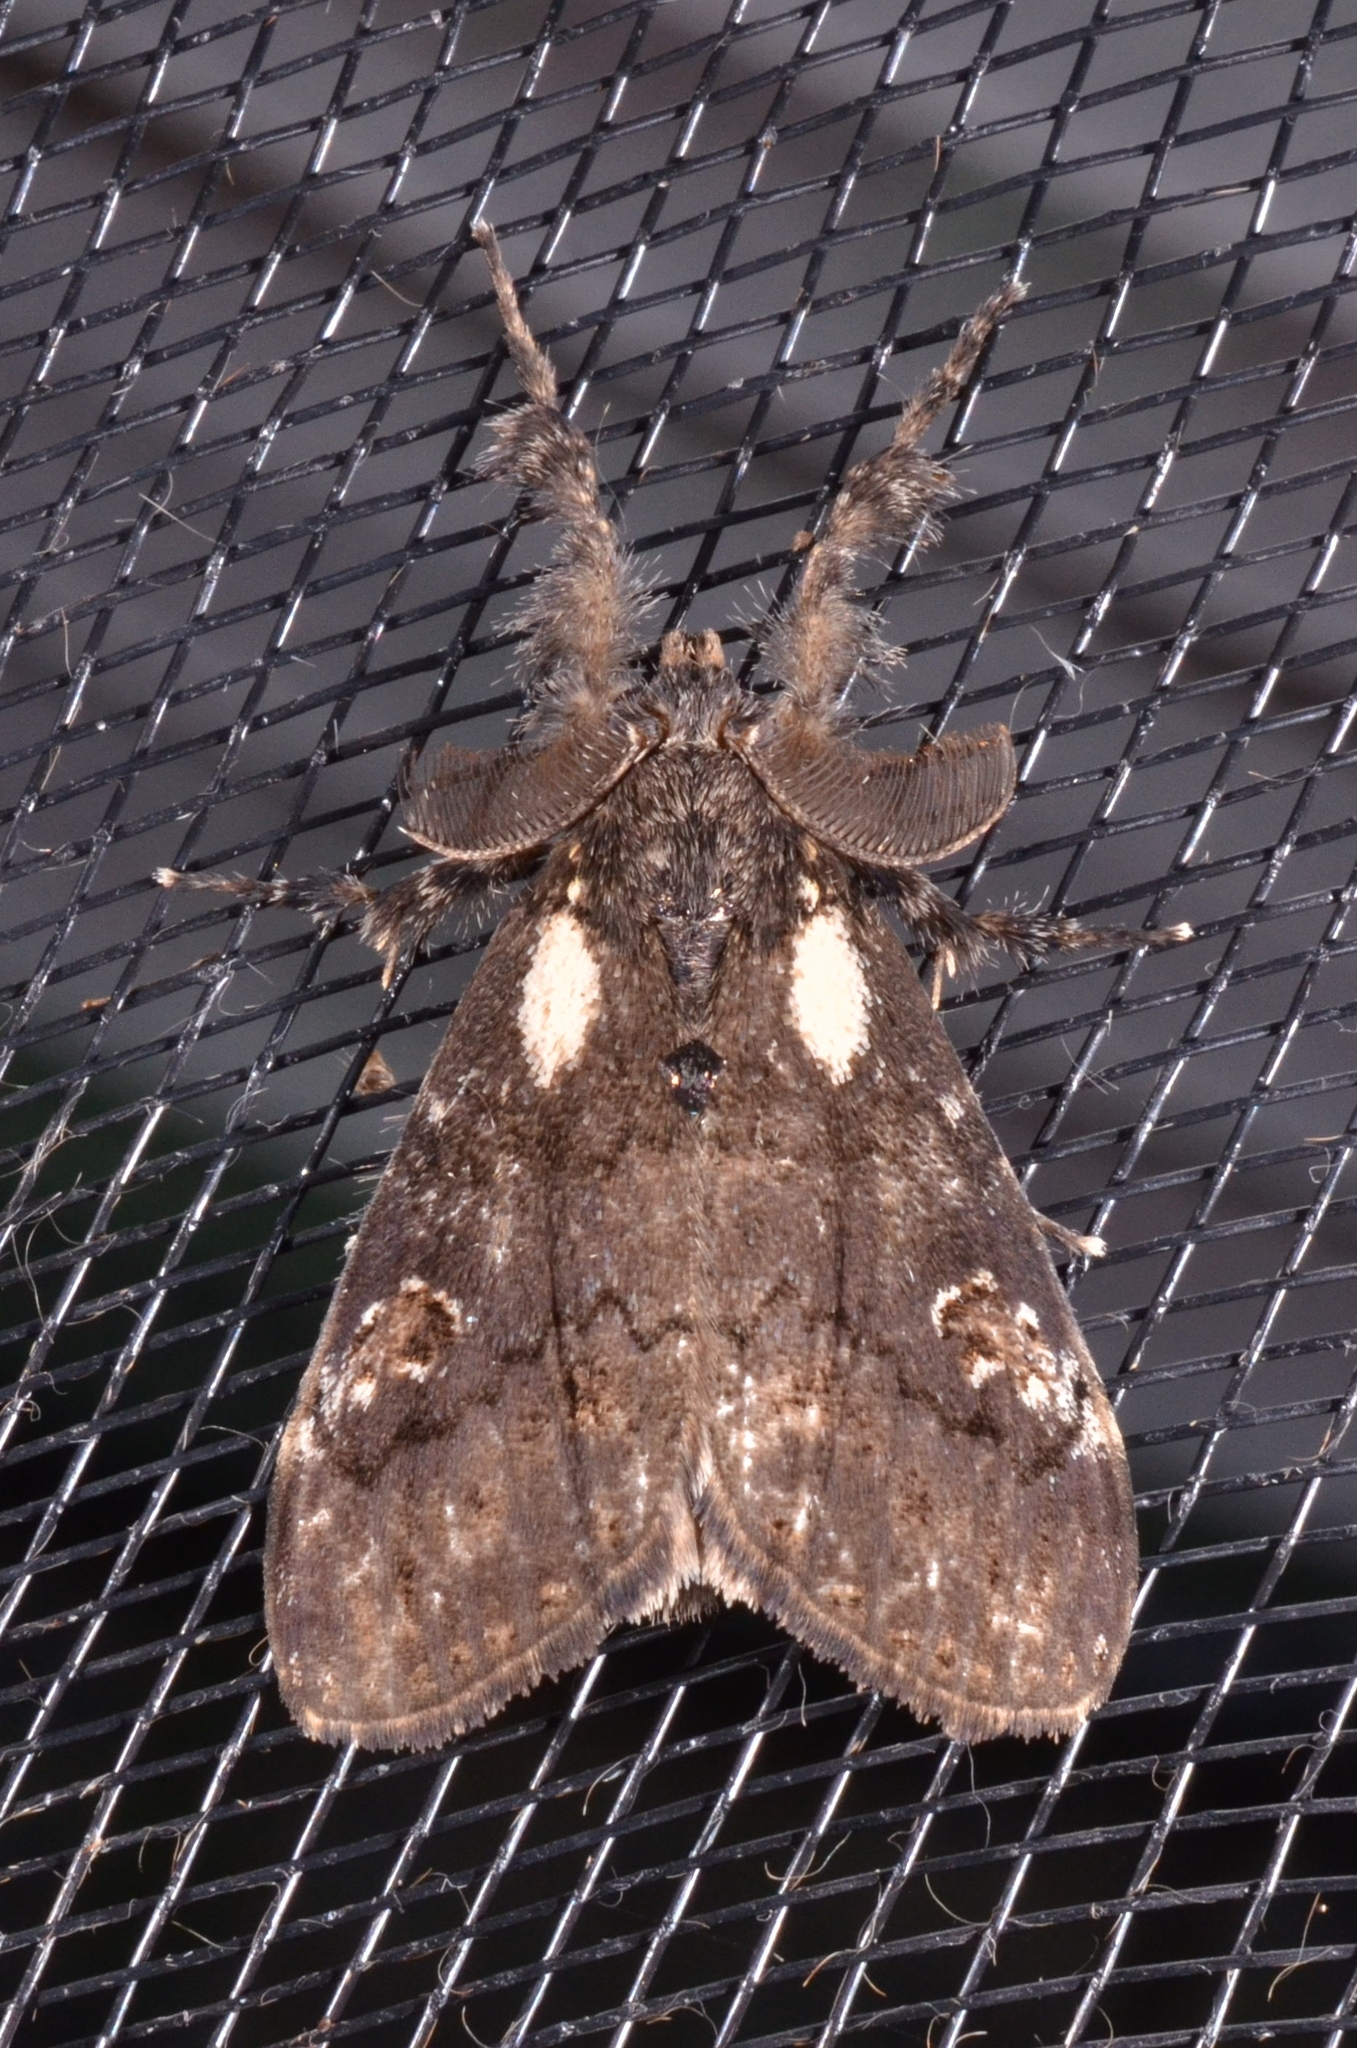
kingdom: Animalia
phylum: Arthropoda
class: Insecta
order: Lepidoptera
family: Erebidae
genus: Olene
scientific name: Olene inclusa
